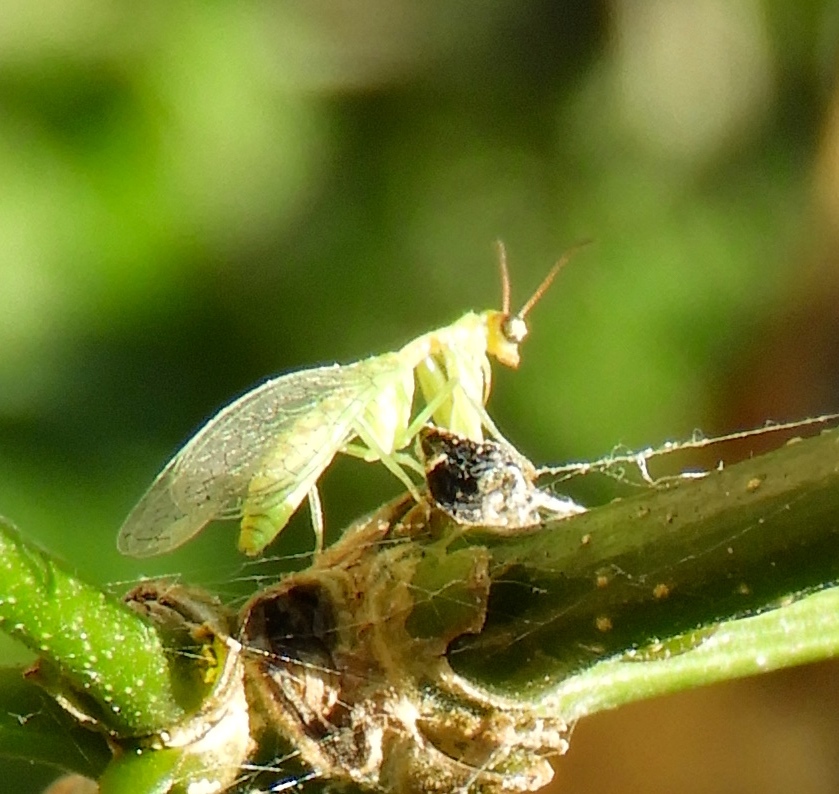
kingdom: Animalia
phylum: Arthropoda
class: Insecta
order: Neuroptera
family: Mantispidae
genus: Zeugomantispa
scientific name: Zeugomantispa
